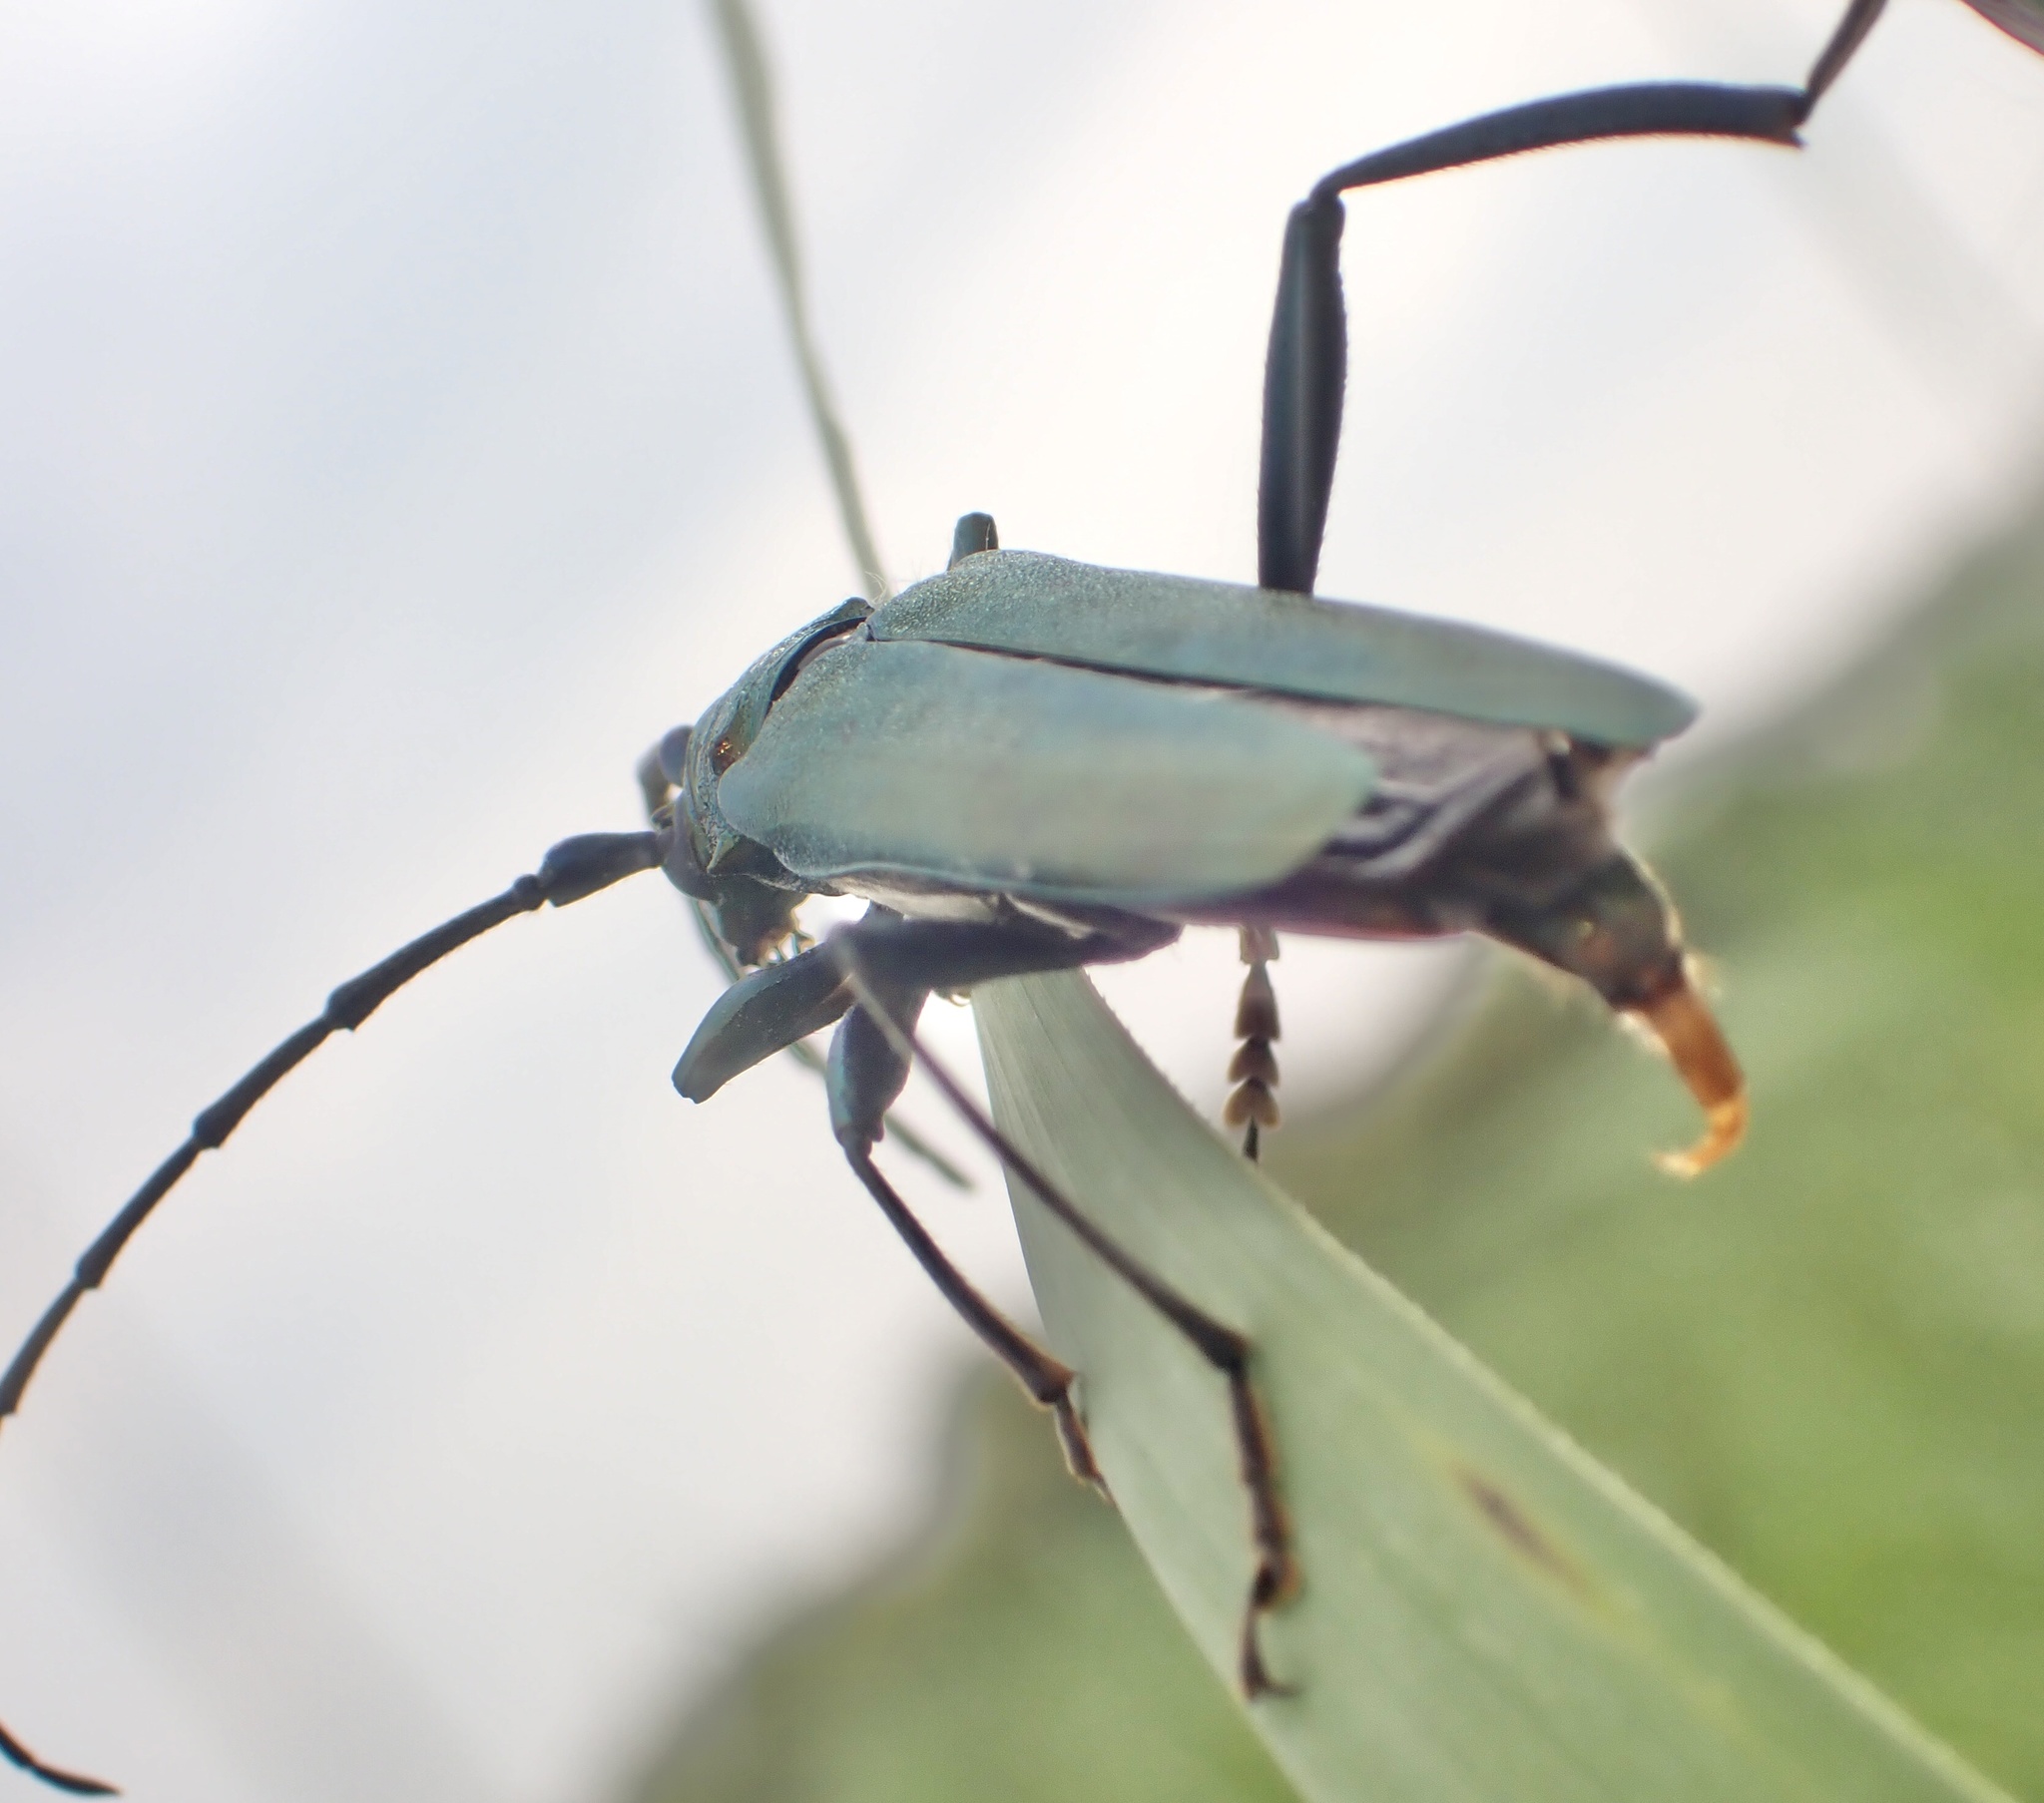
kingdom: Animalia
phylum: Arthropoda
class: Insecta
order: Coleoptera
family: Cerambycidae
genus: Aromia
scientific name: Aromia moschata
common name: Musk beetle
